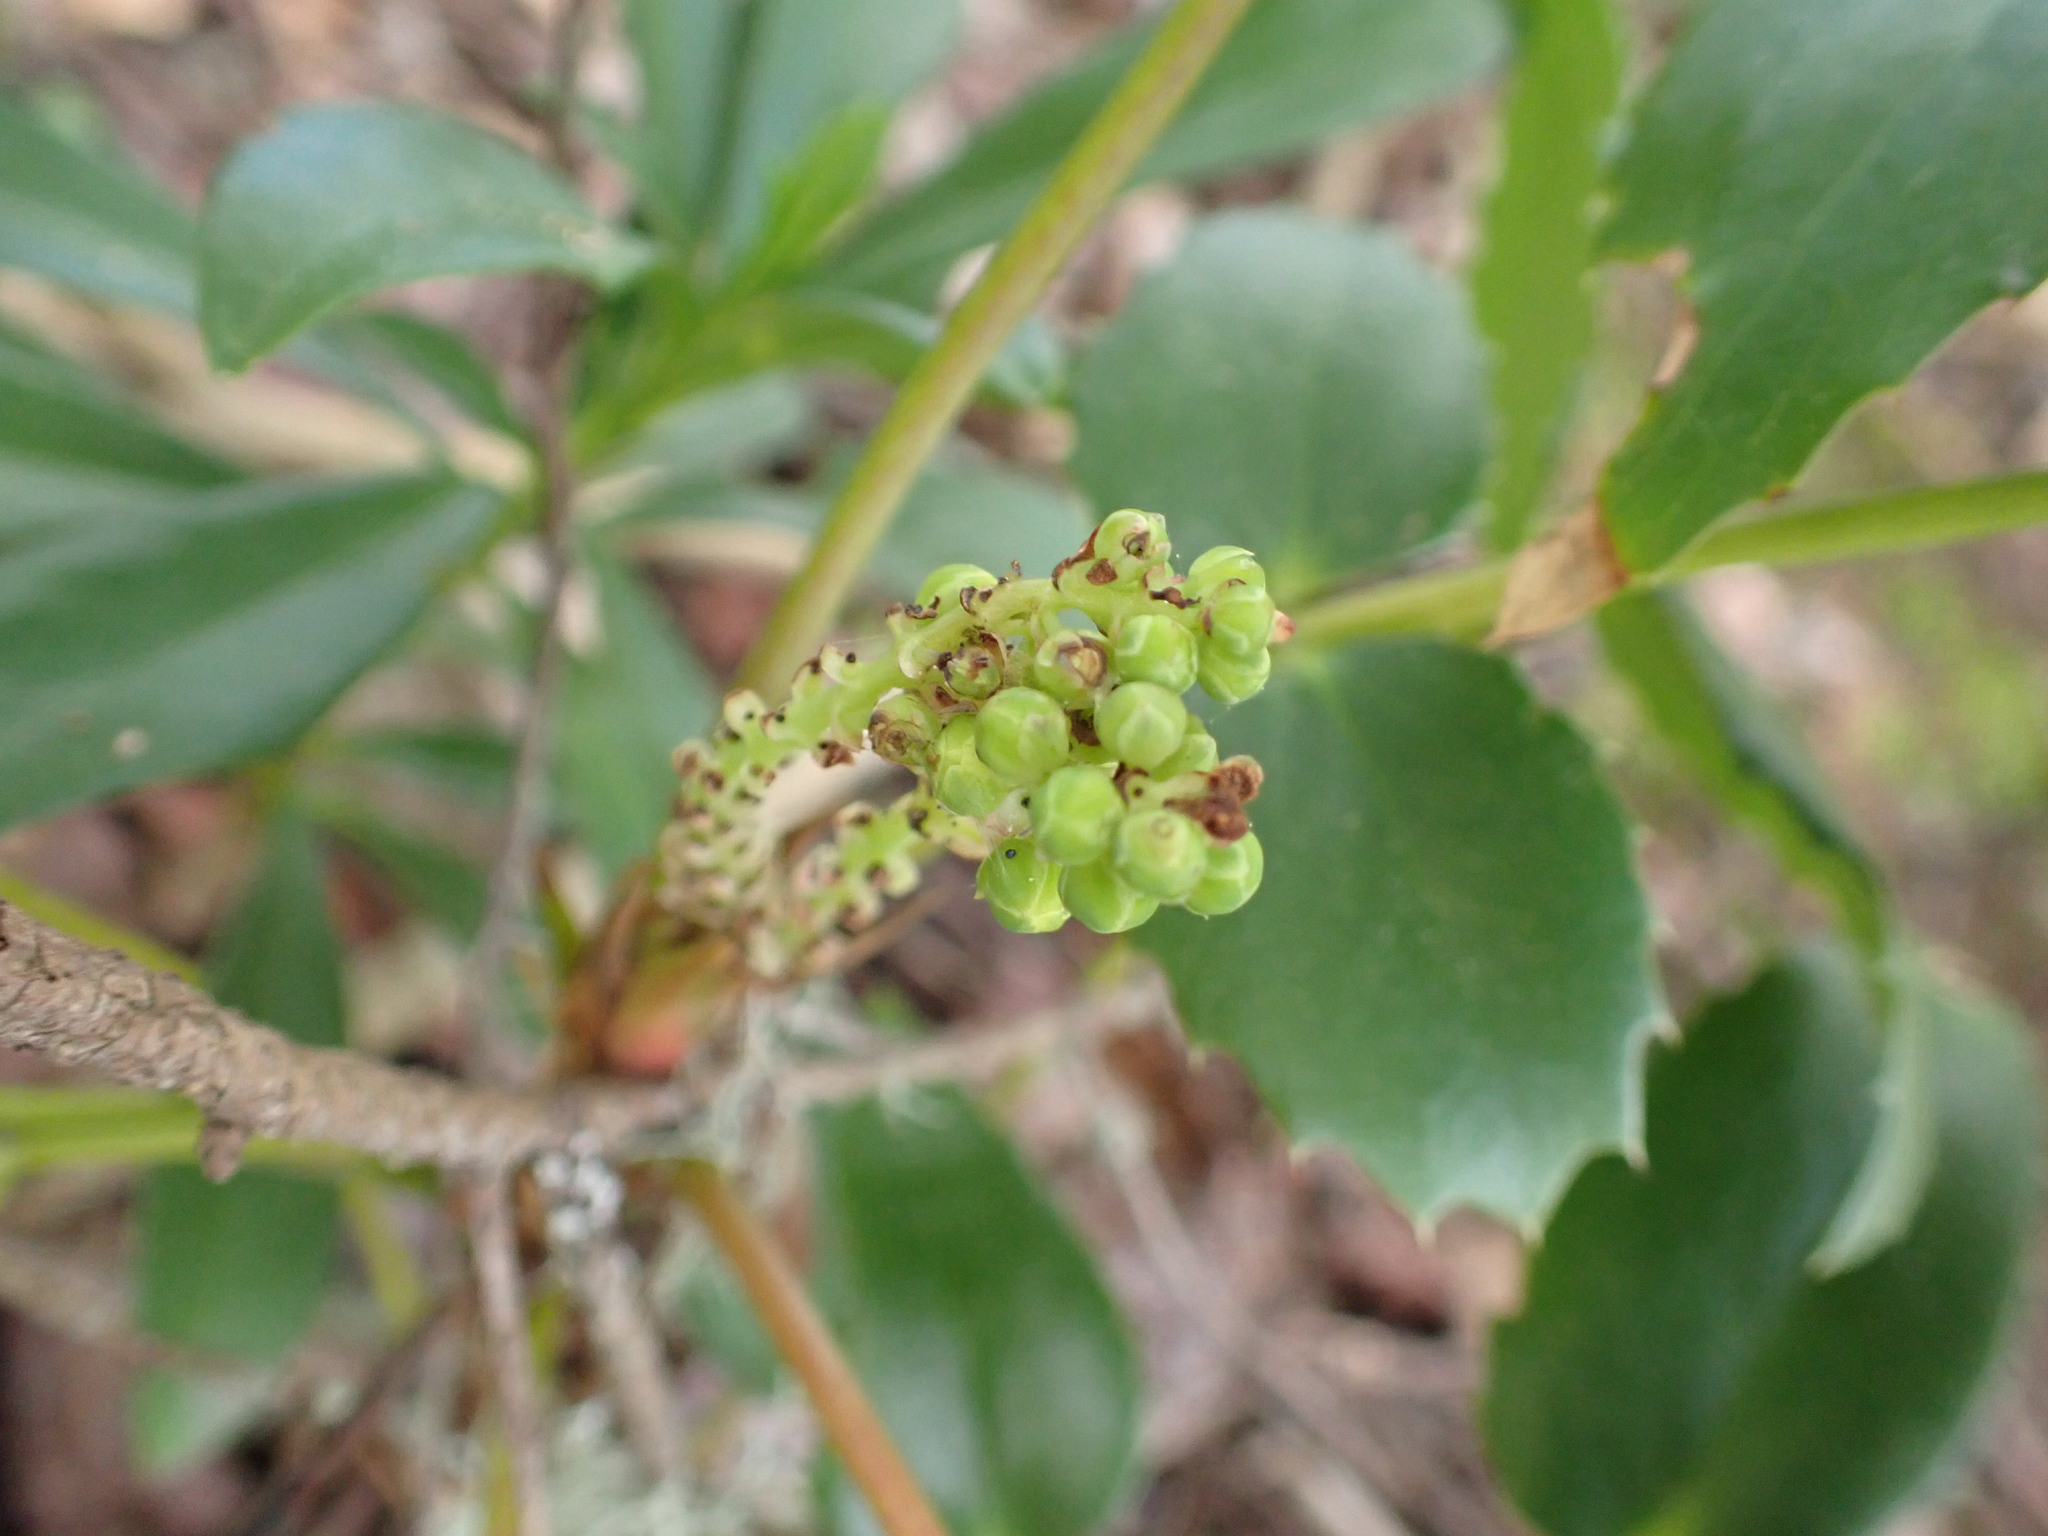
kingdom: Plantae
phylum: Tracheophyta
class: Magnoliopsida
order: Ranunculales
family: Berberidaceae
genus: Mahonia
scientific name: Mahonia nervosa
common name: Cascade oregon-grape
